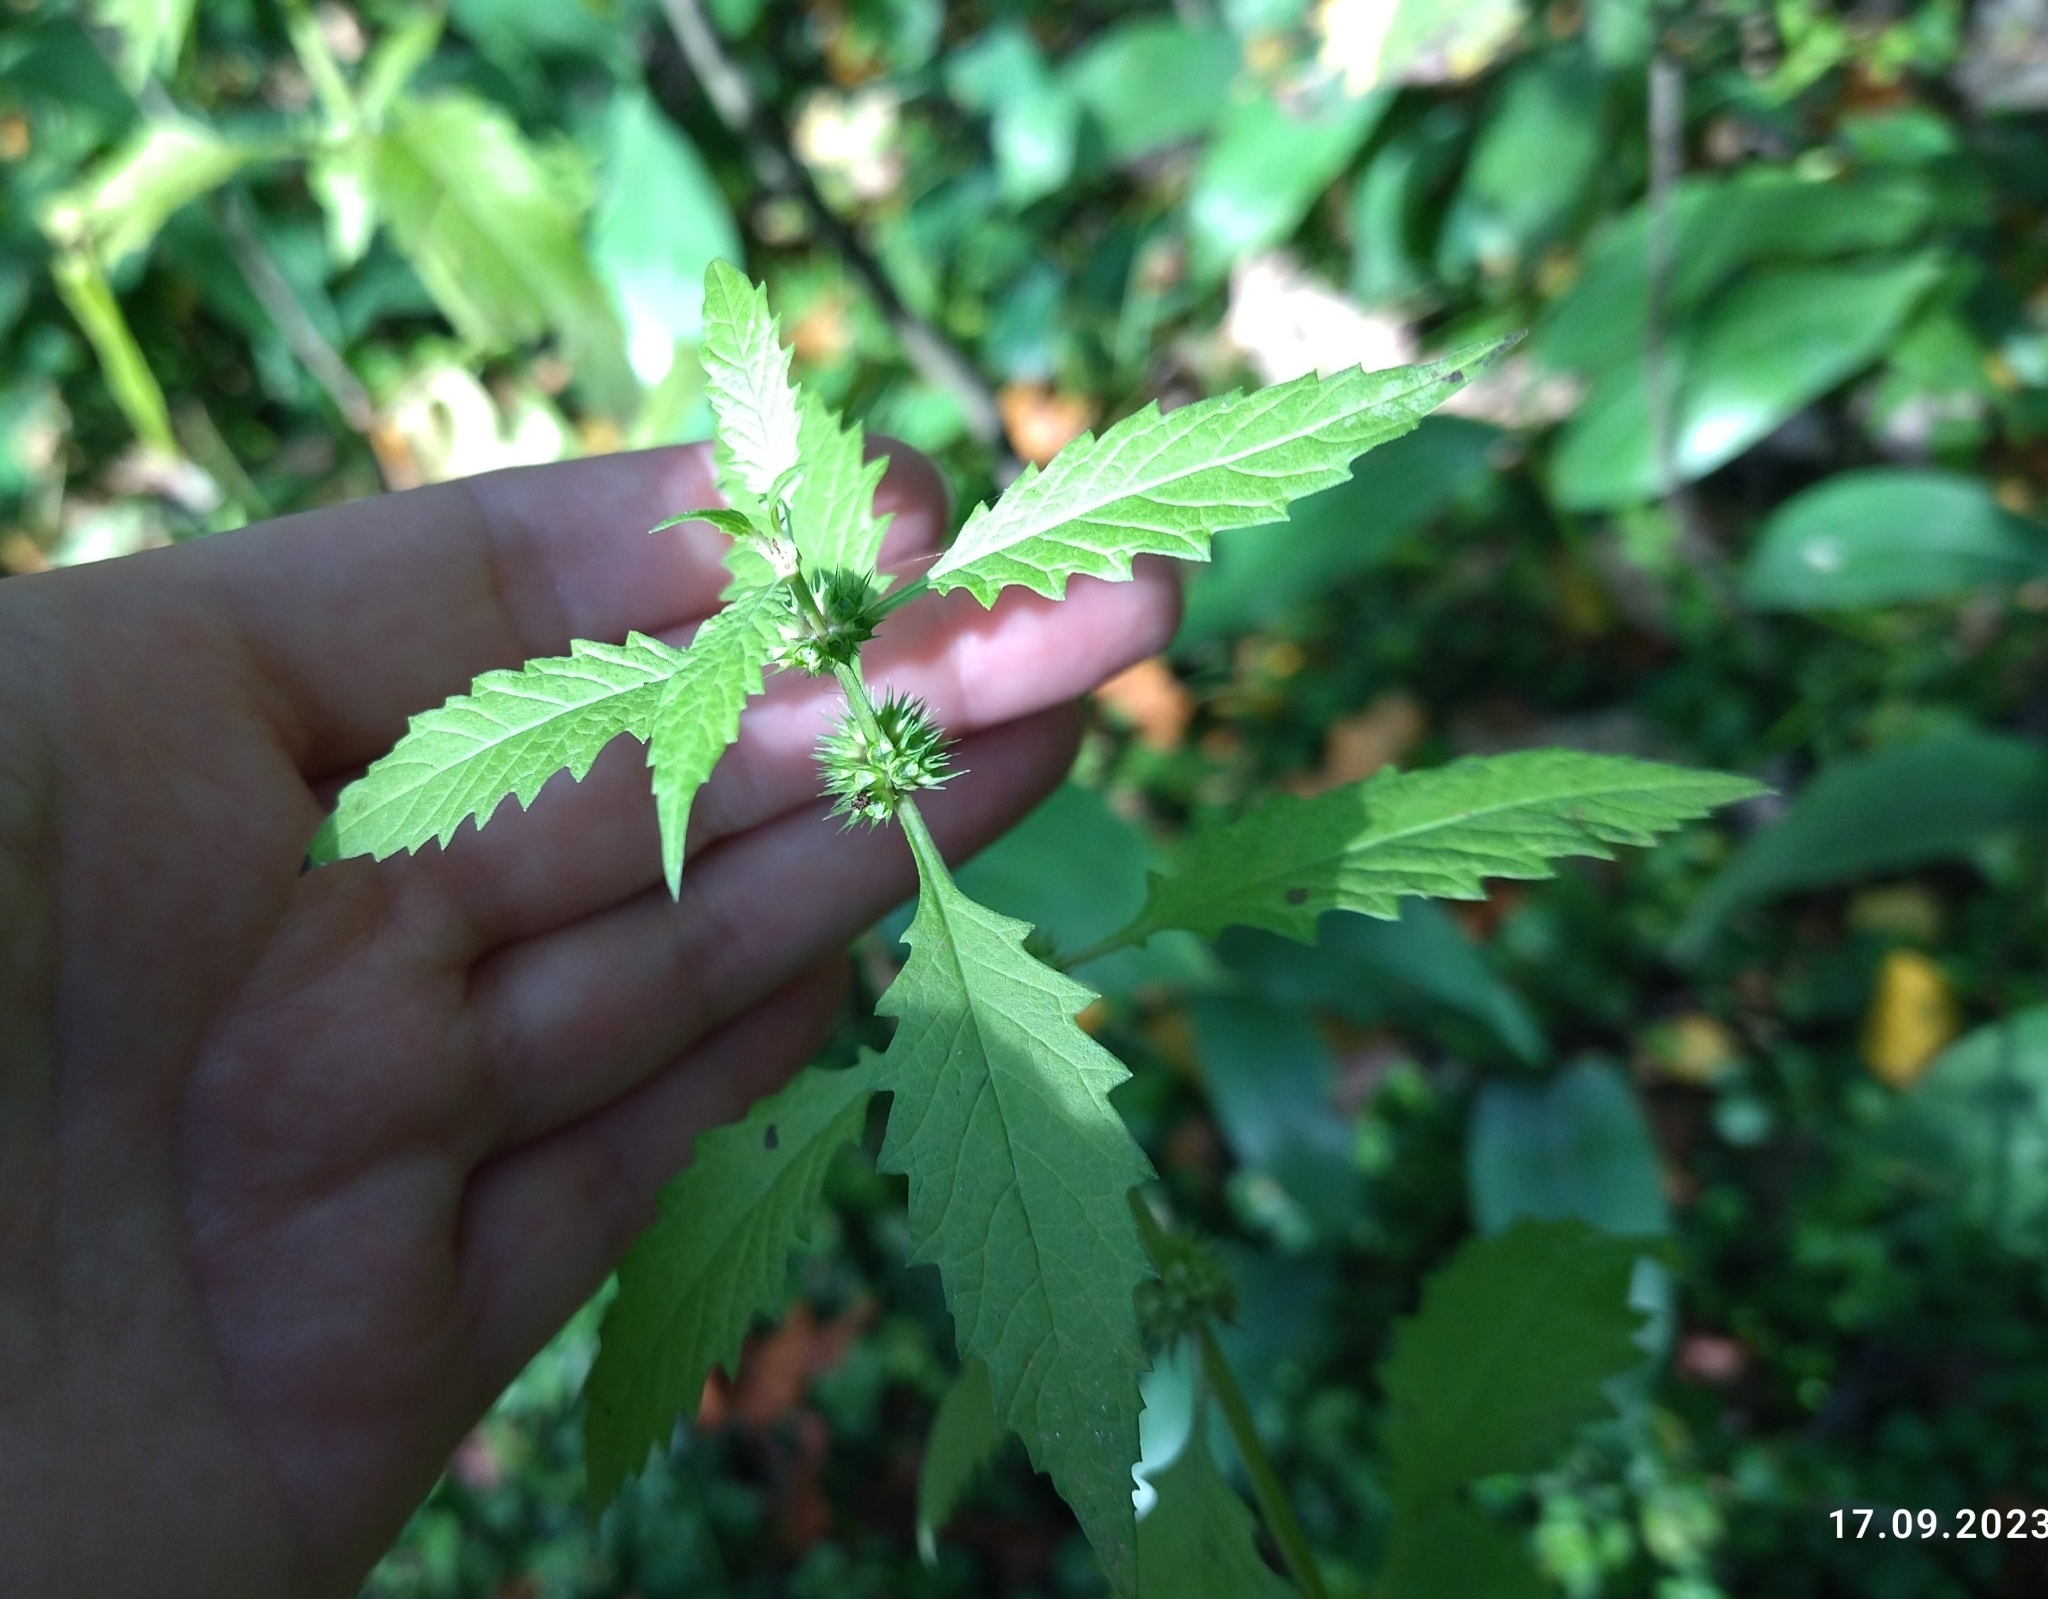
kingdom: Plantae
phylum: Tracheophyta
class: Magnoliopsida
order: Lamiales
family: Lamiaceae
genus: Lycopus
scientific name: Lycopus europaeus
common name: European bugleweed
